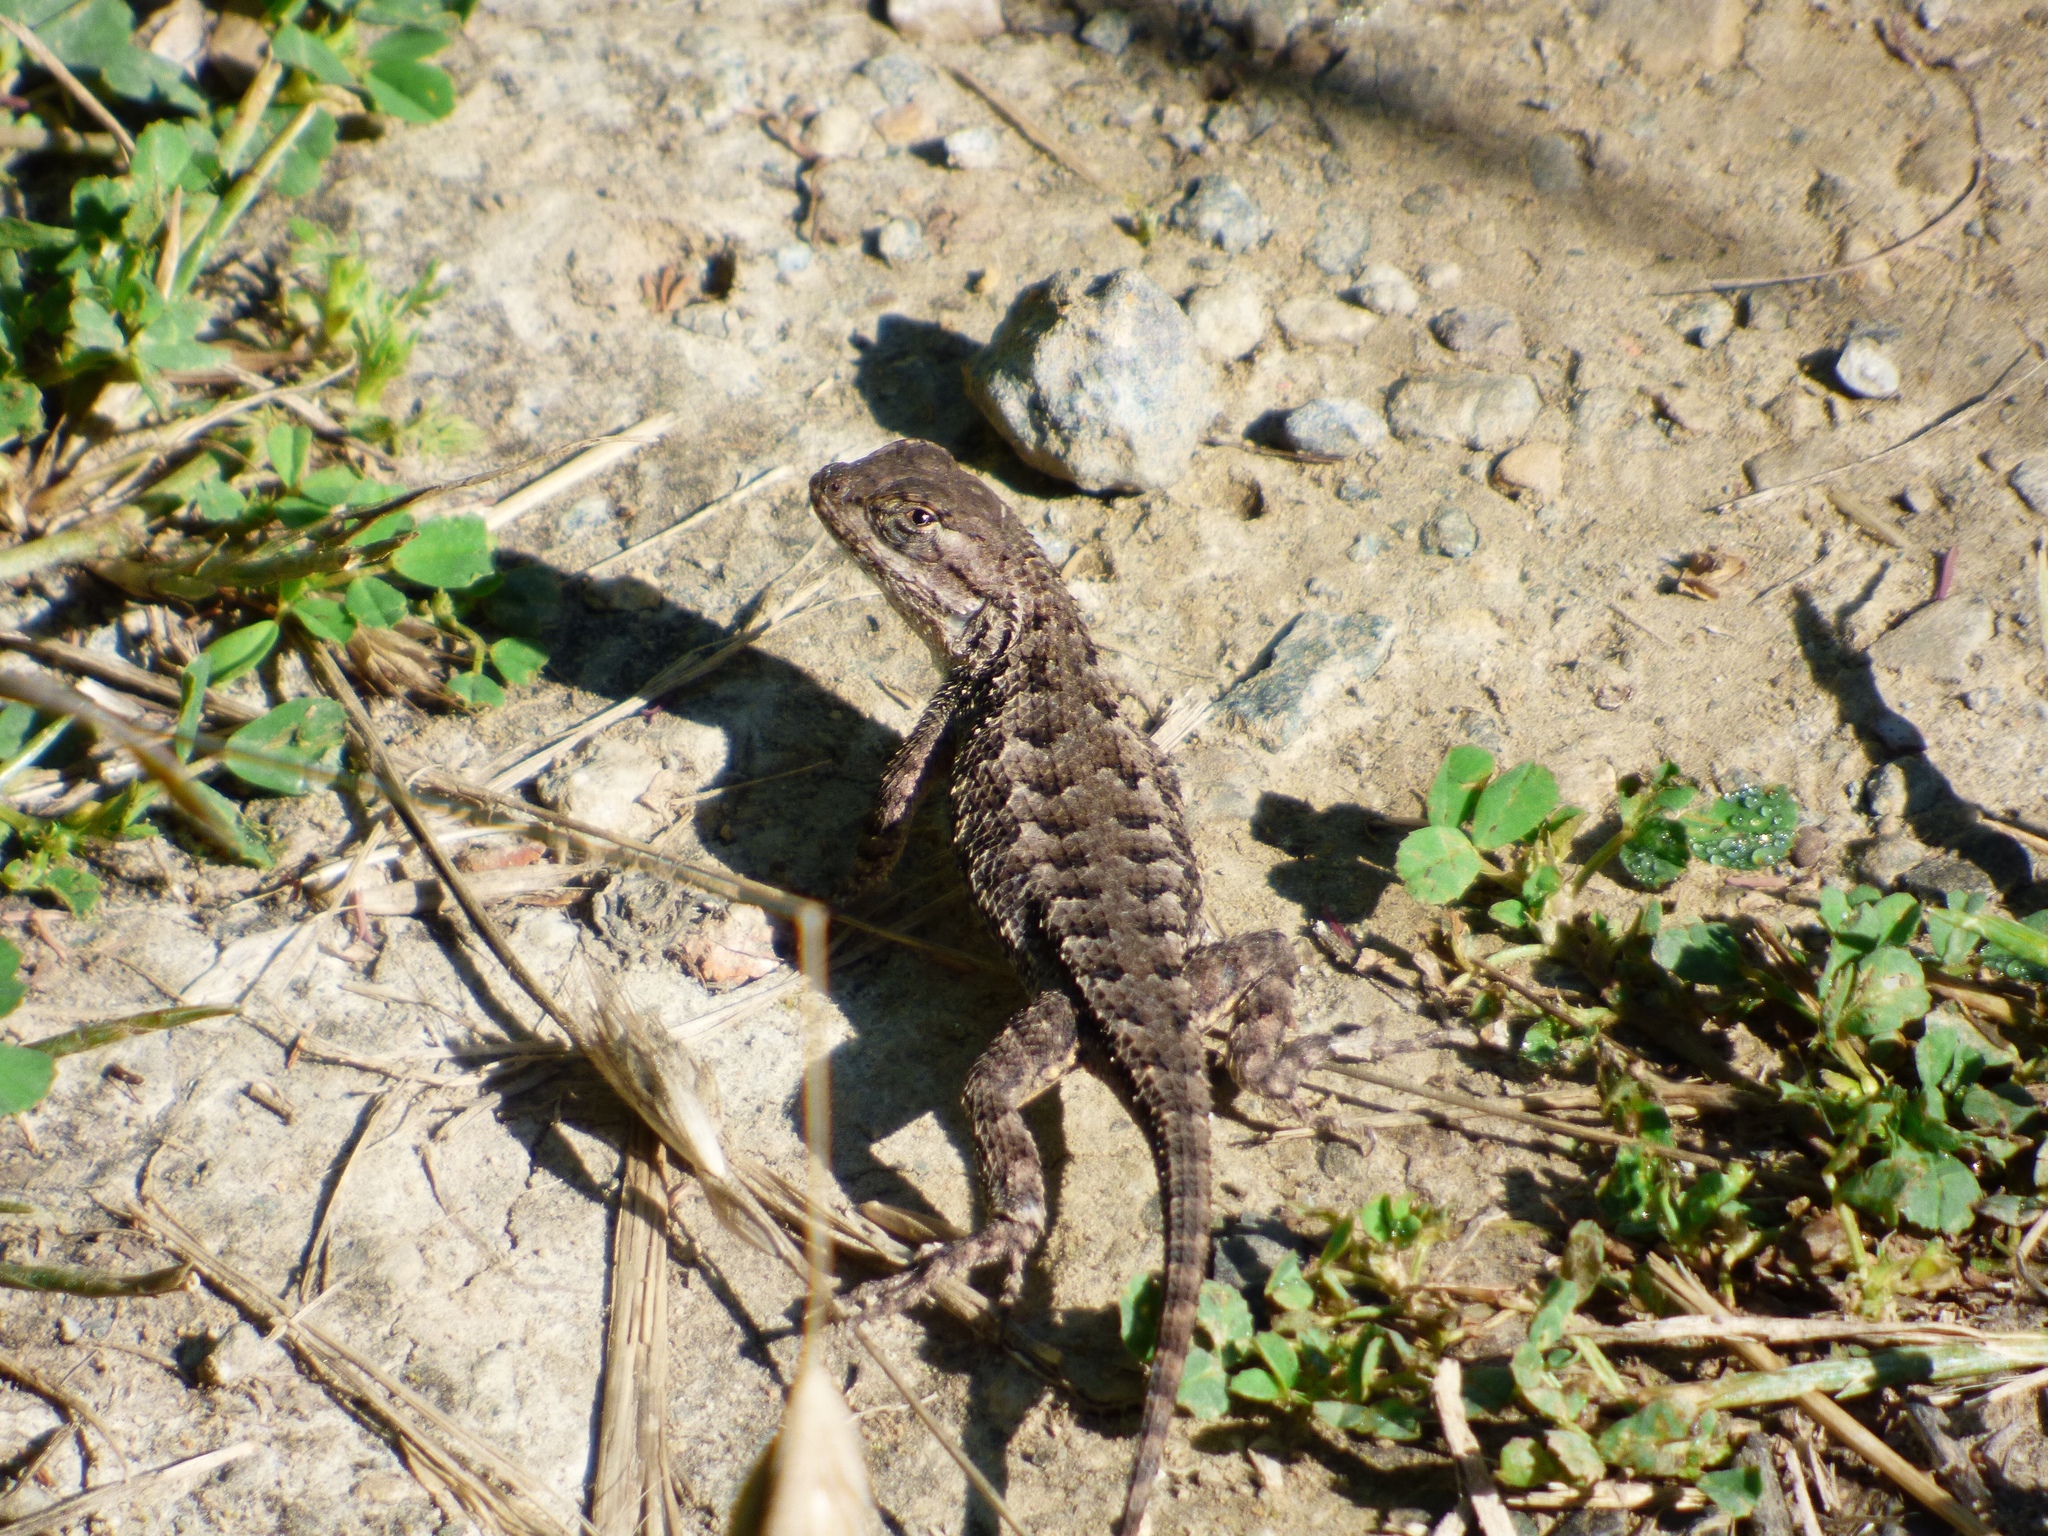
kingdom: Animalia
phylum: Chordata
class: Squamata
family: Phrynosomatidae
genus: Sceloporus
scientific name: Sceloporus occidentalis
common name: Western fence lizard
